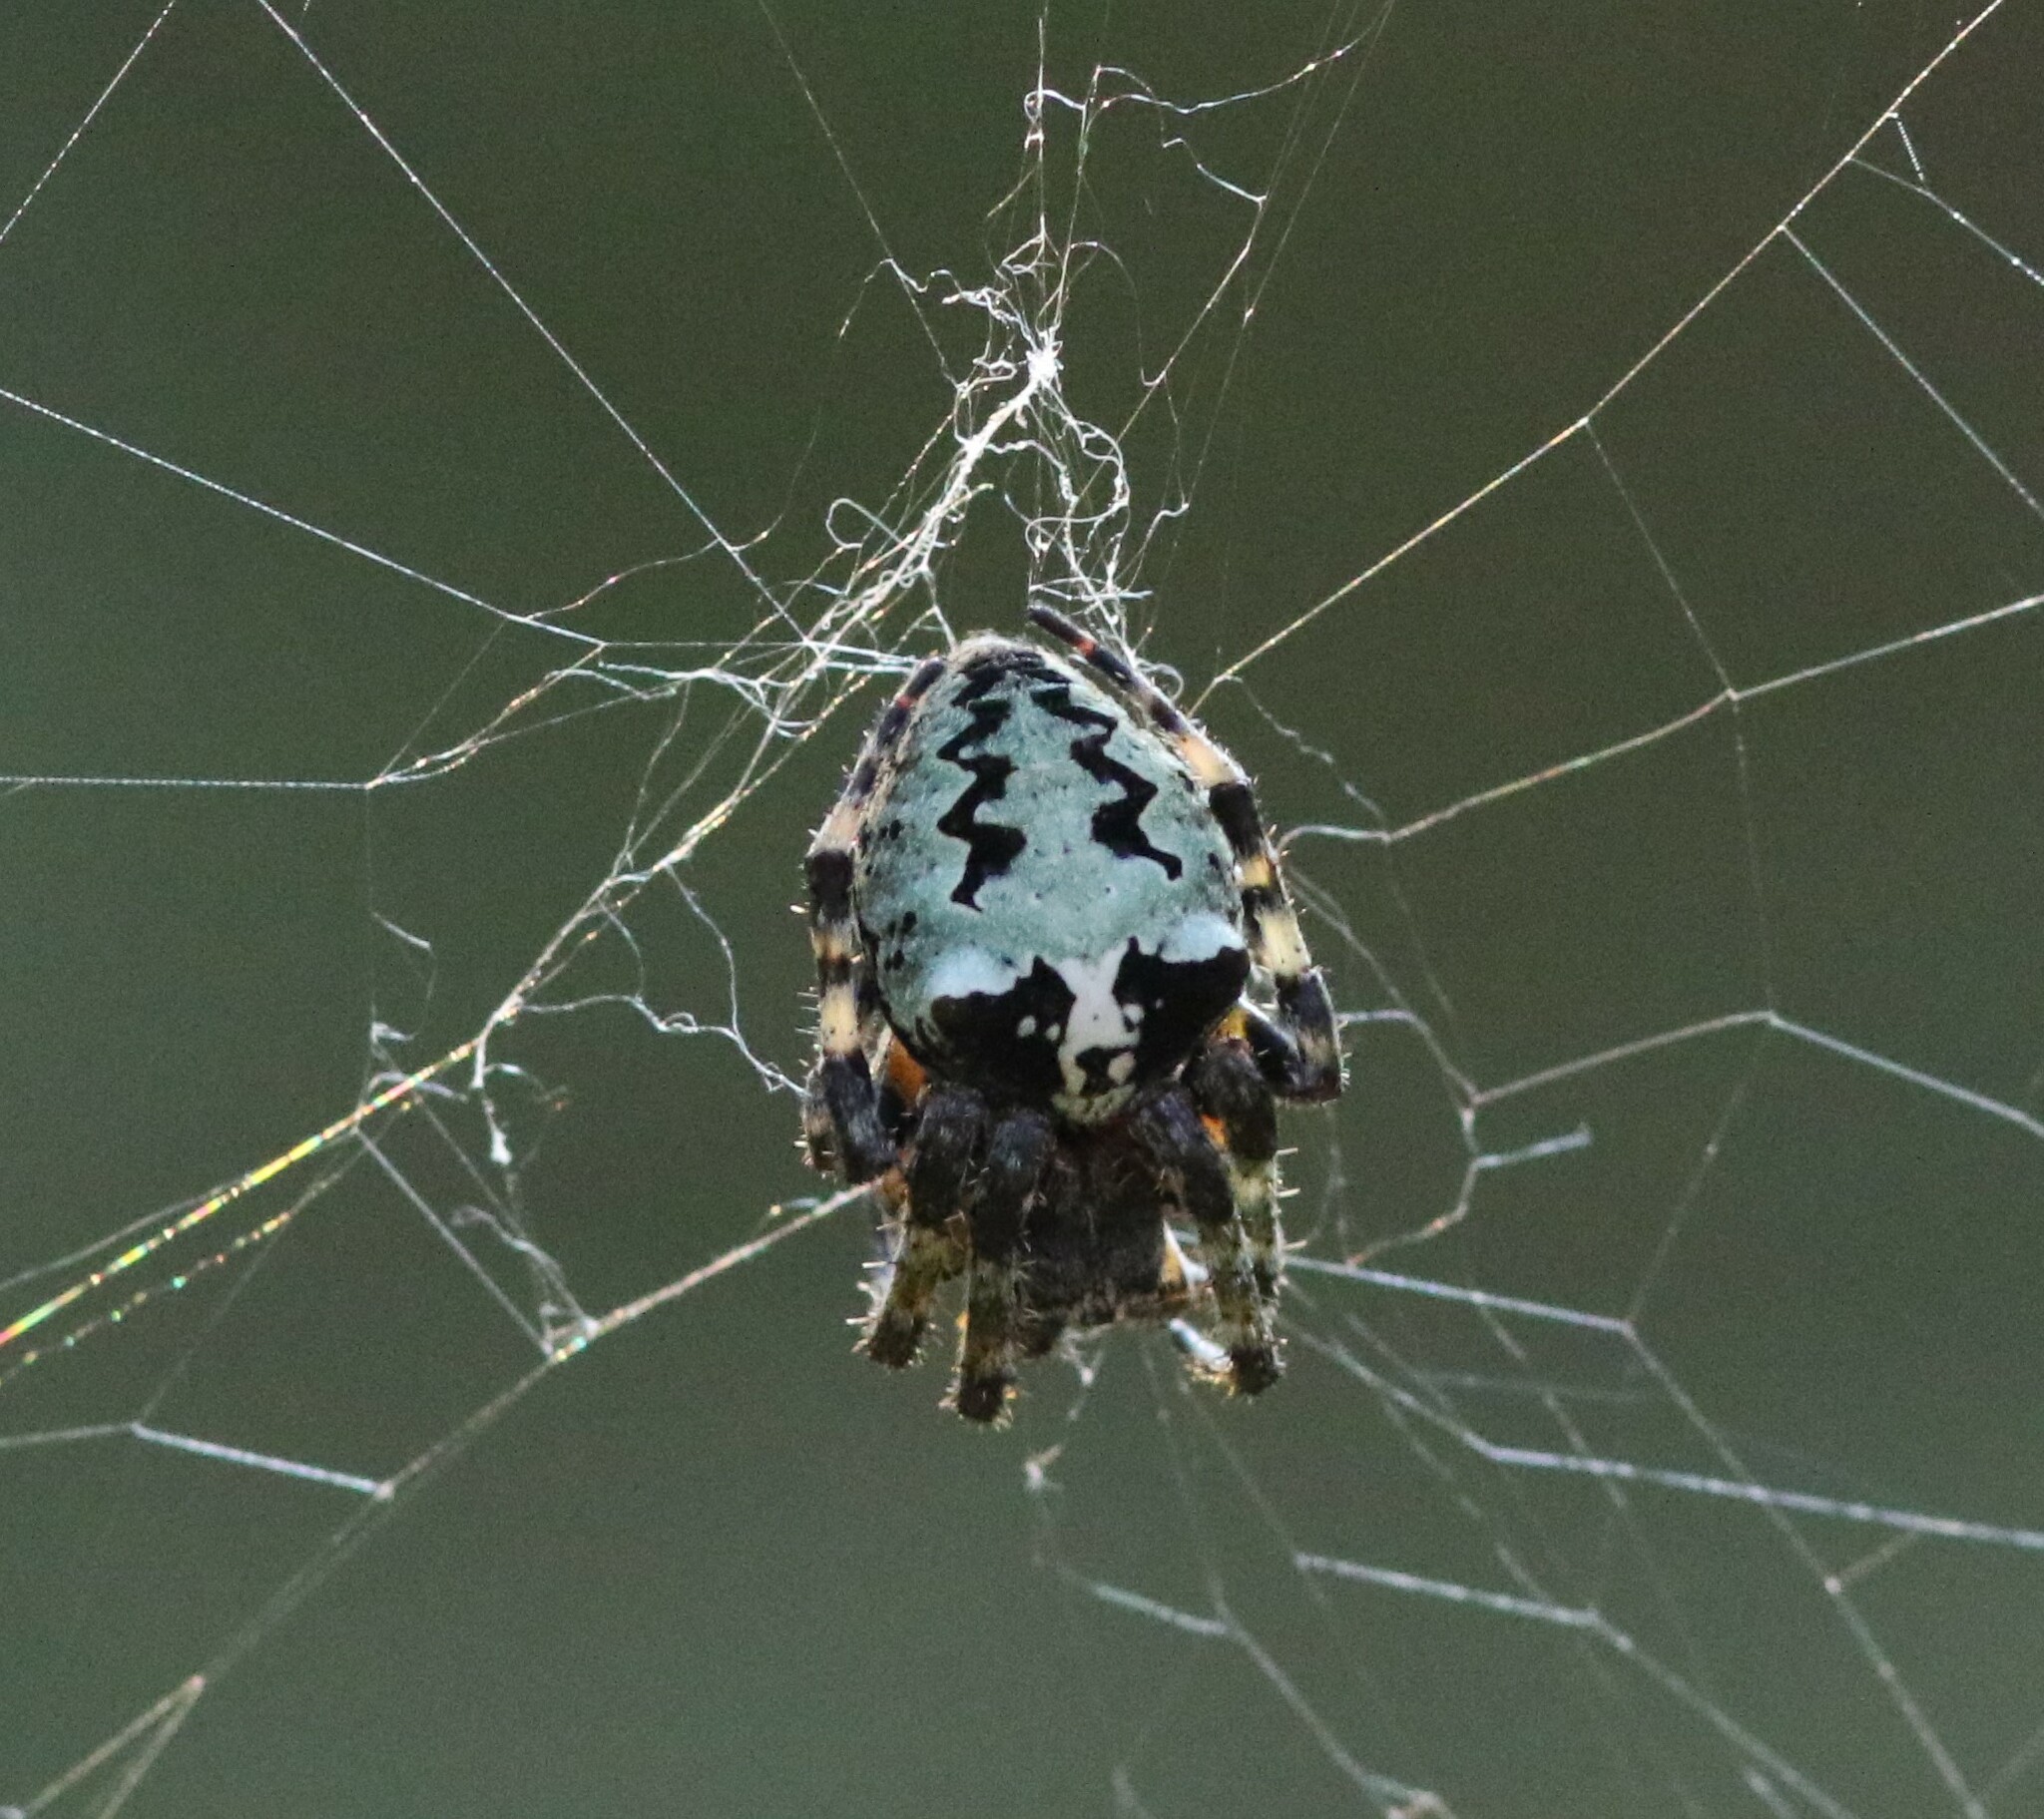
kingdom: Animalia
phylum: Arthropoda
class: Arachnida
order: Araneae
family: Araneidae
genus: Araneus
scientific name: Araneus bicentenarius
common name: Giant lichen orbweaver
